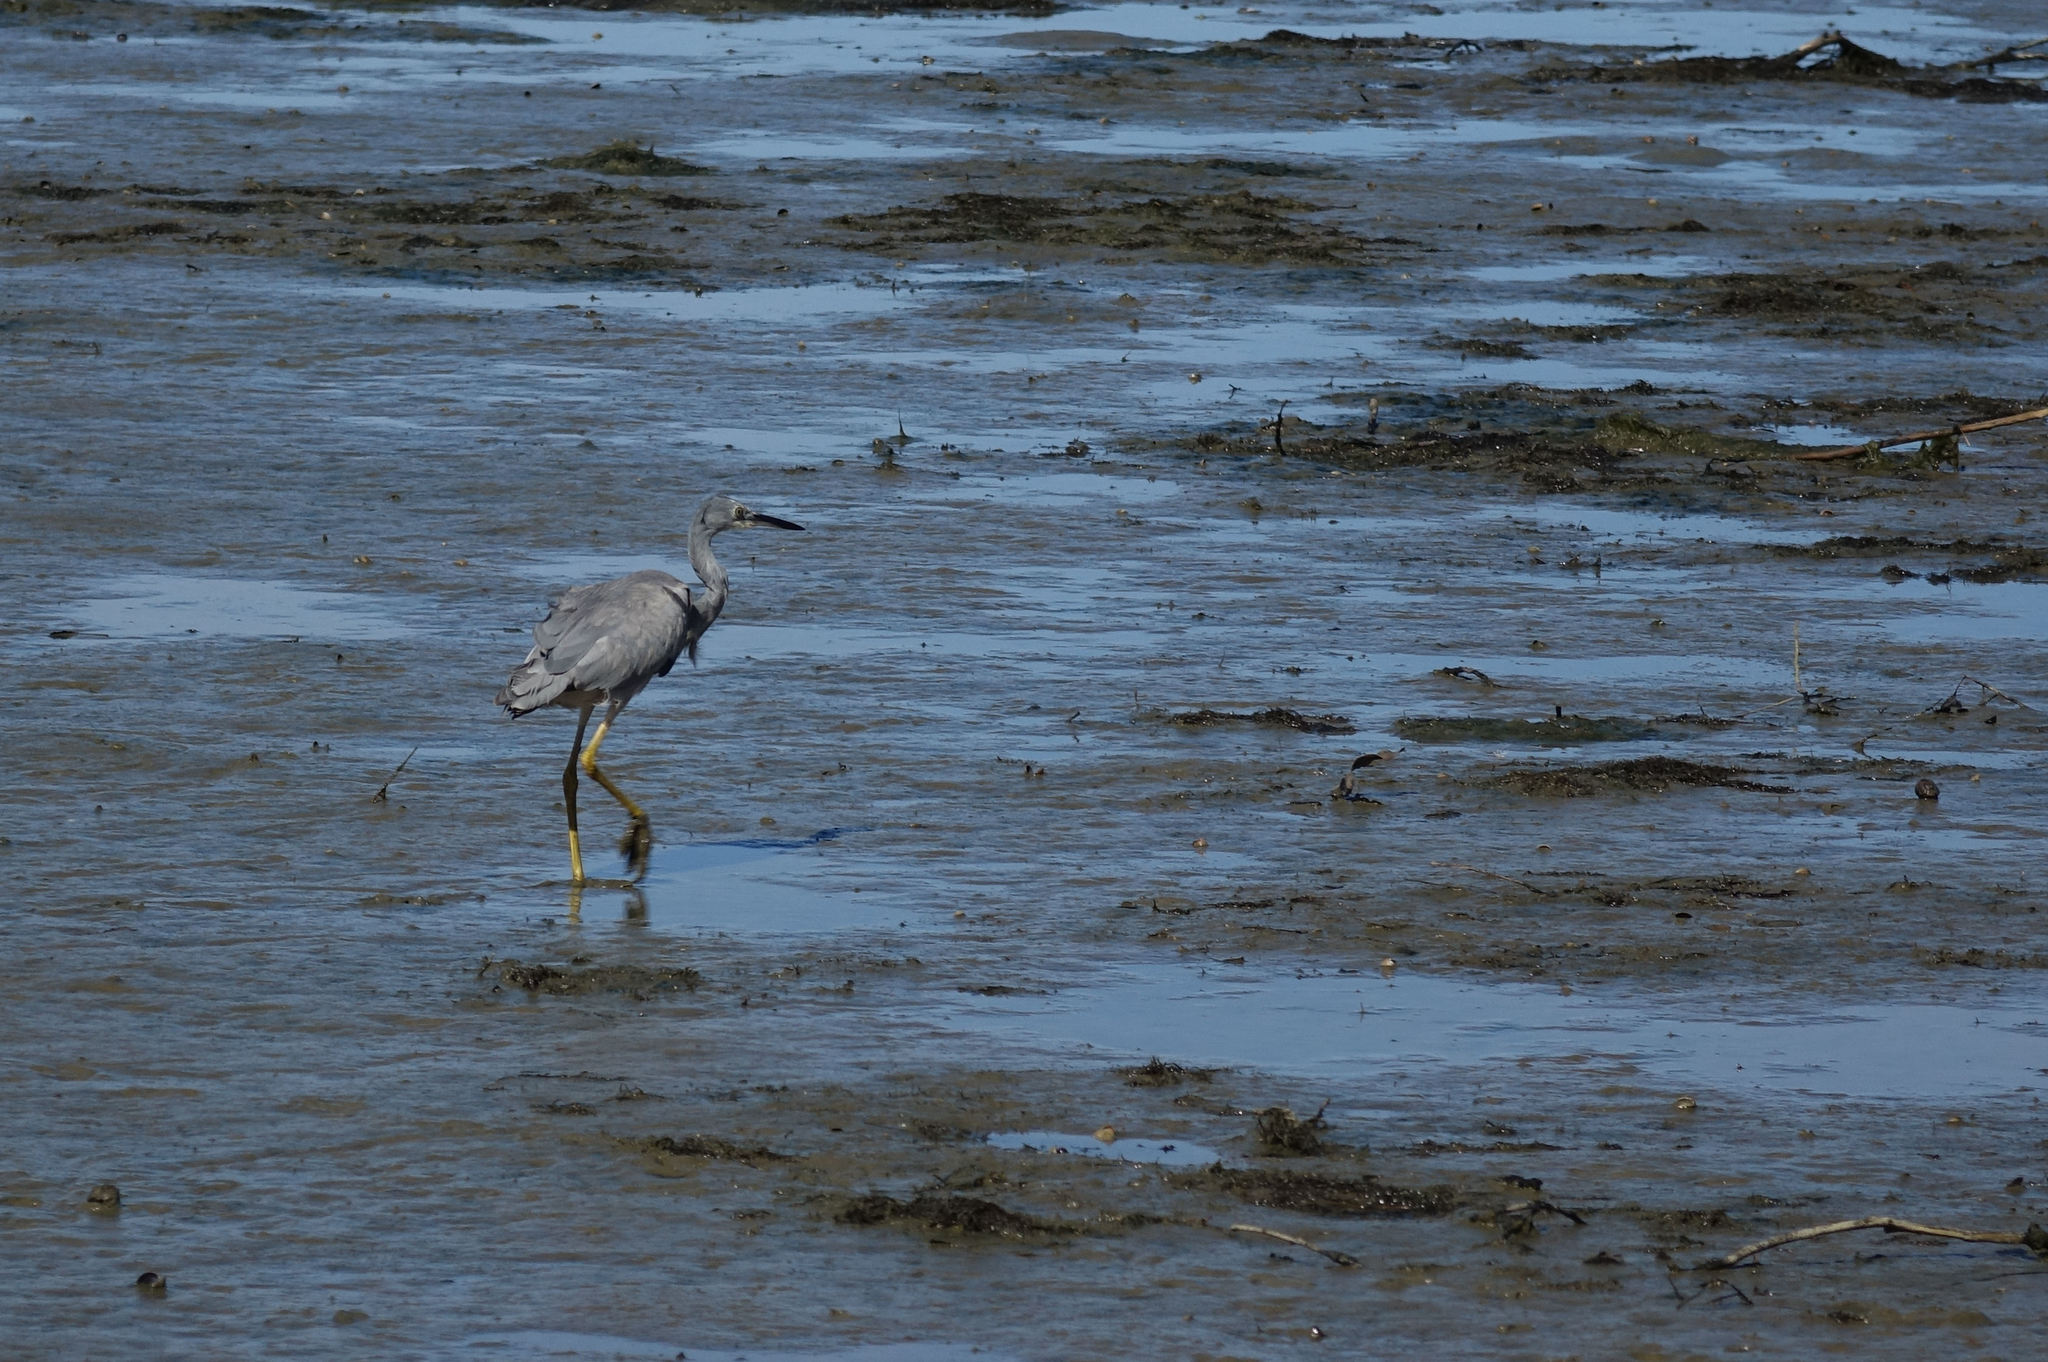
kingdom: Animalia
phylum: Chordata
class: Aves
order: Pelecaniformes
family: Ardeidae
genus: Egretta
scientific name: Egretta novaehollandiae
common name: White-faced heron
